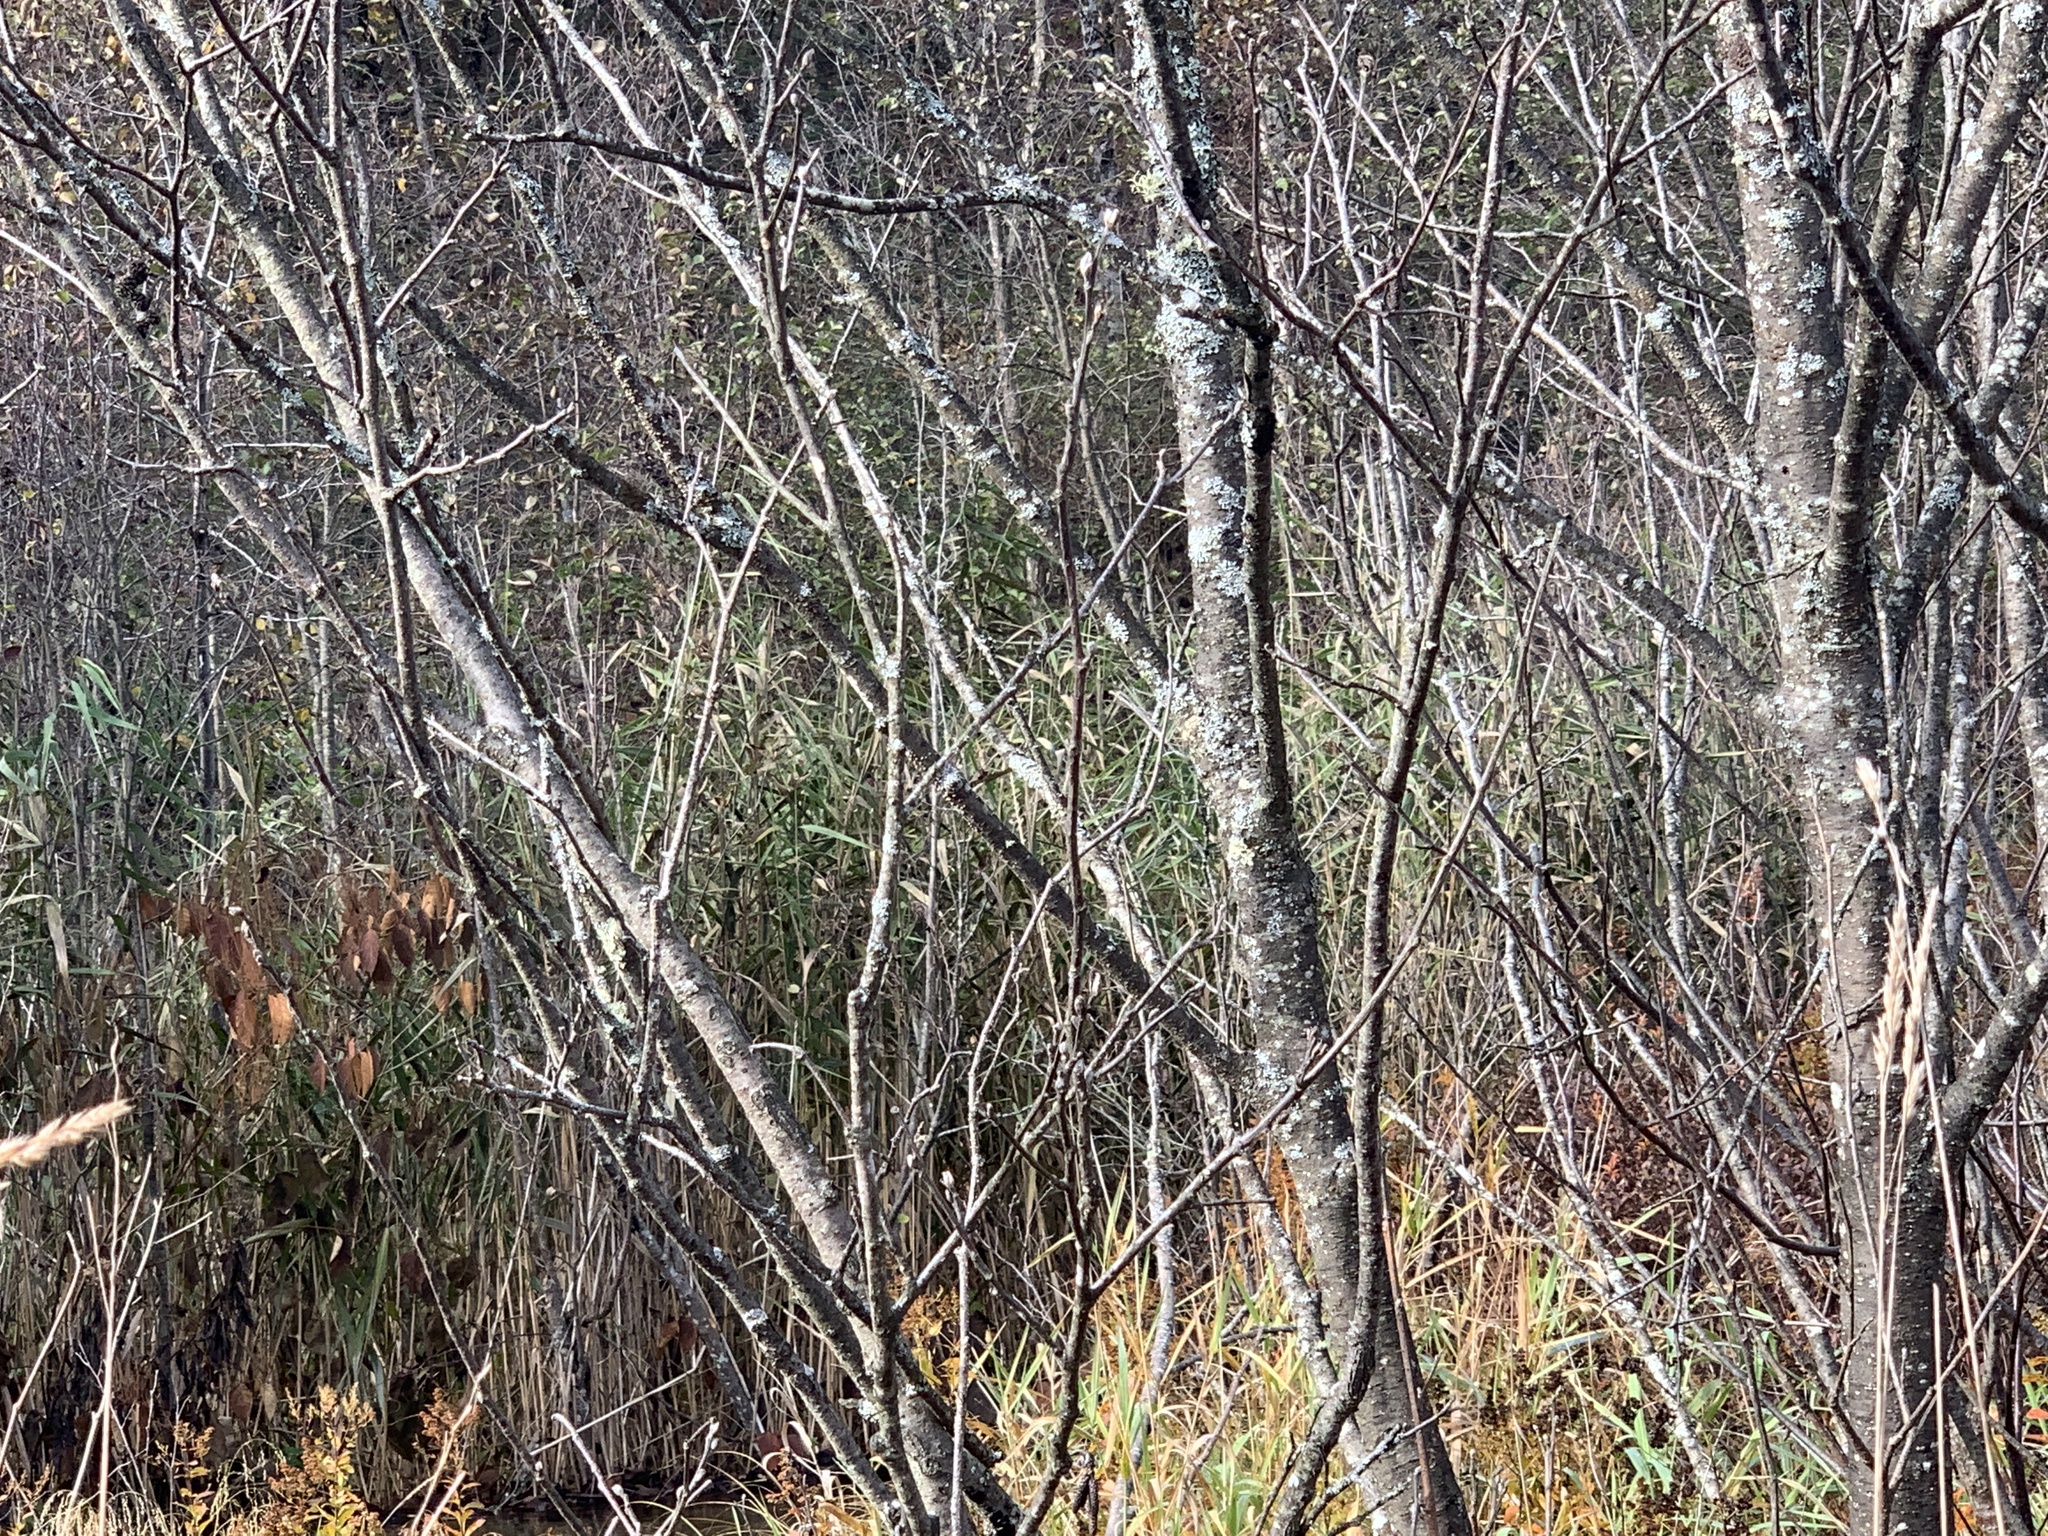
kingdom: Plantae
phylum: Tracheophyta
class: Liliopsida
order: Poales
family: Poaceae
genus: Phragmites
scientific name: Phragmites australis
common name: Common reed
